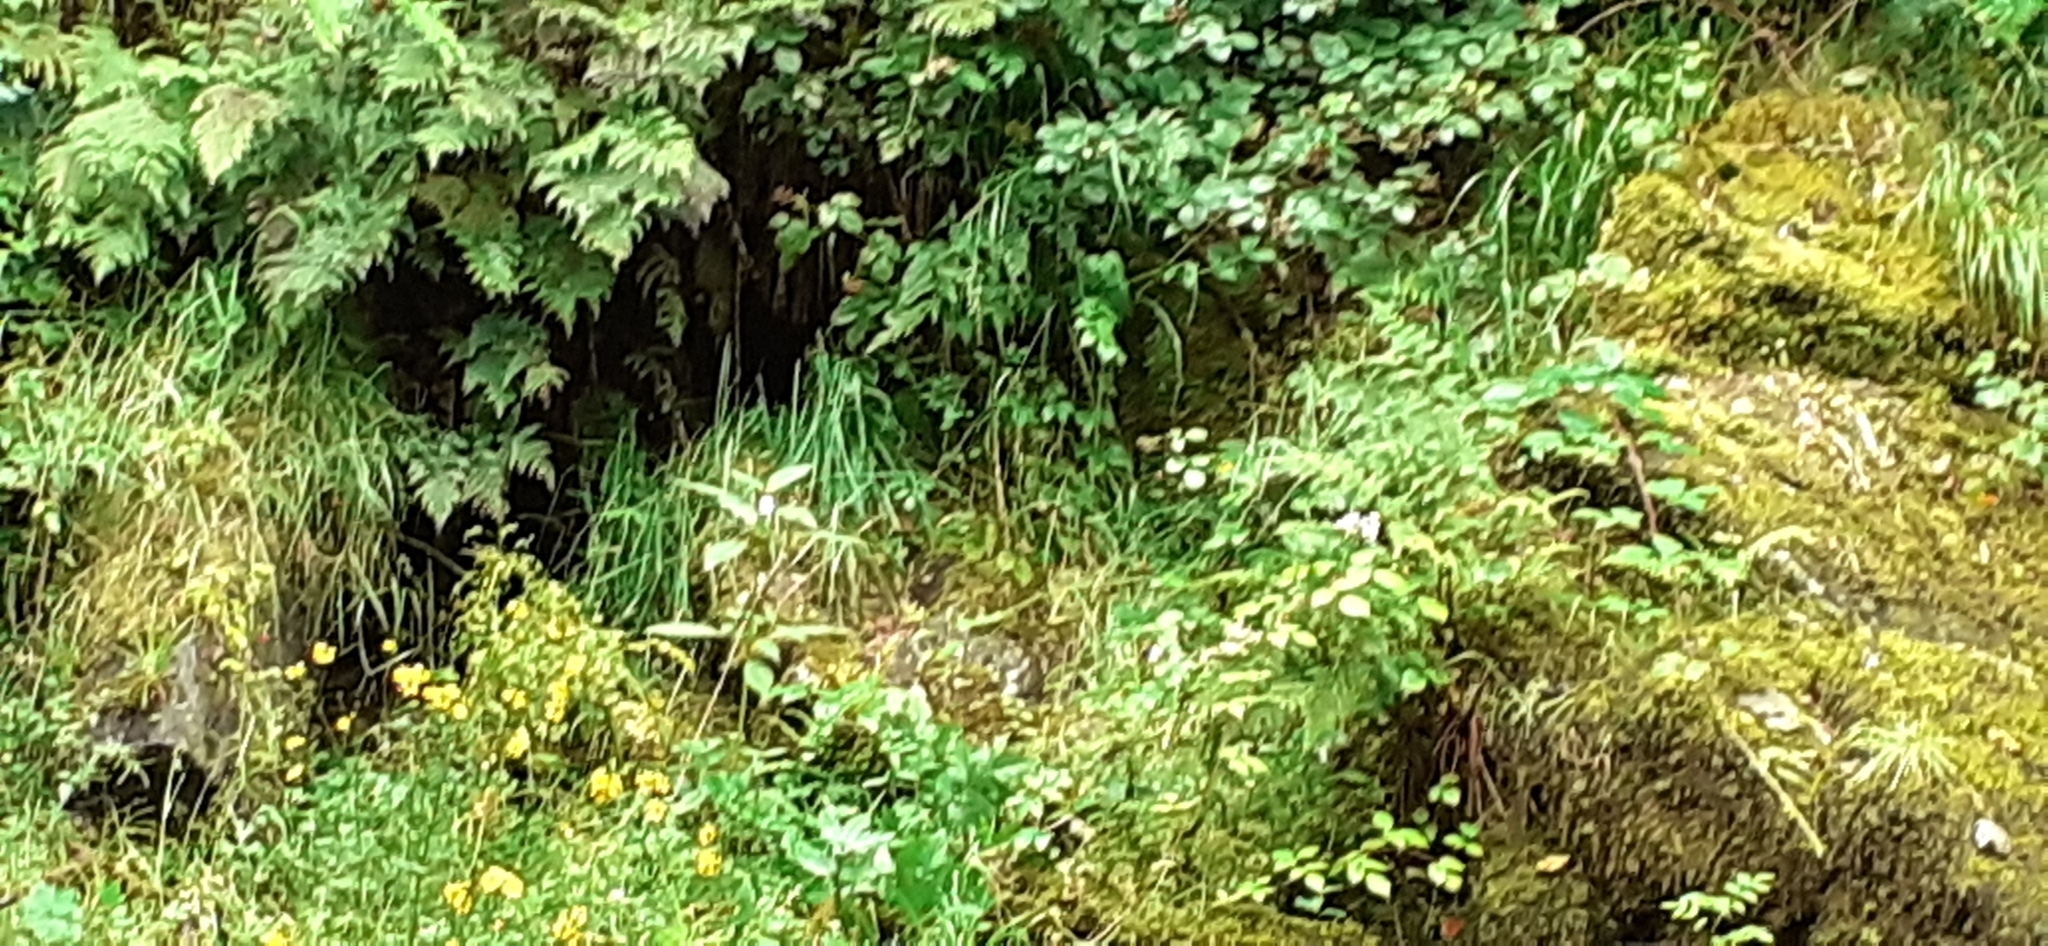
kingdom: Plantae
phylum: Tracheophyta
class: Magnoliopsida
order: Ericales
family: Balsaminaceae
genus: Impatiens
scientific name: Impatiens glandulifera
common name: Himalayan balsam
